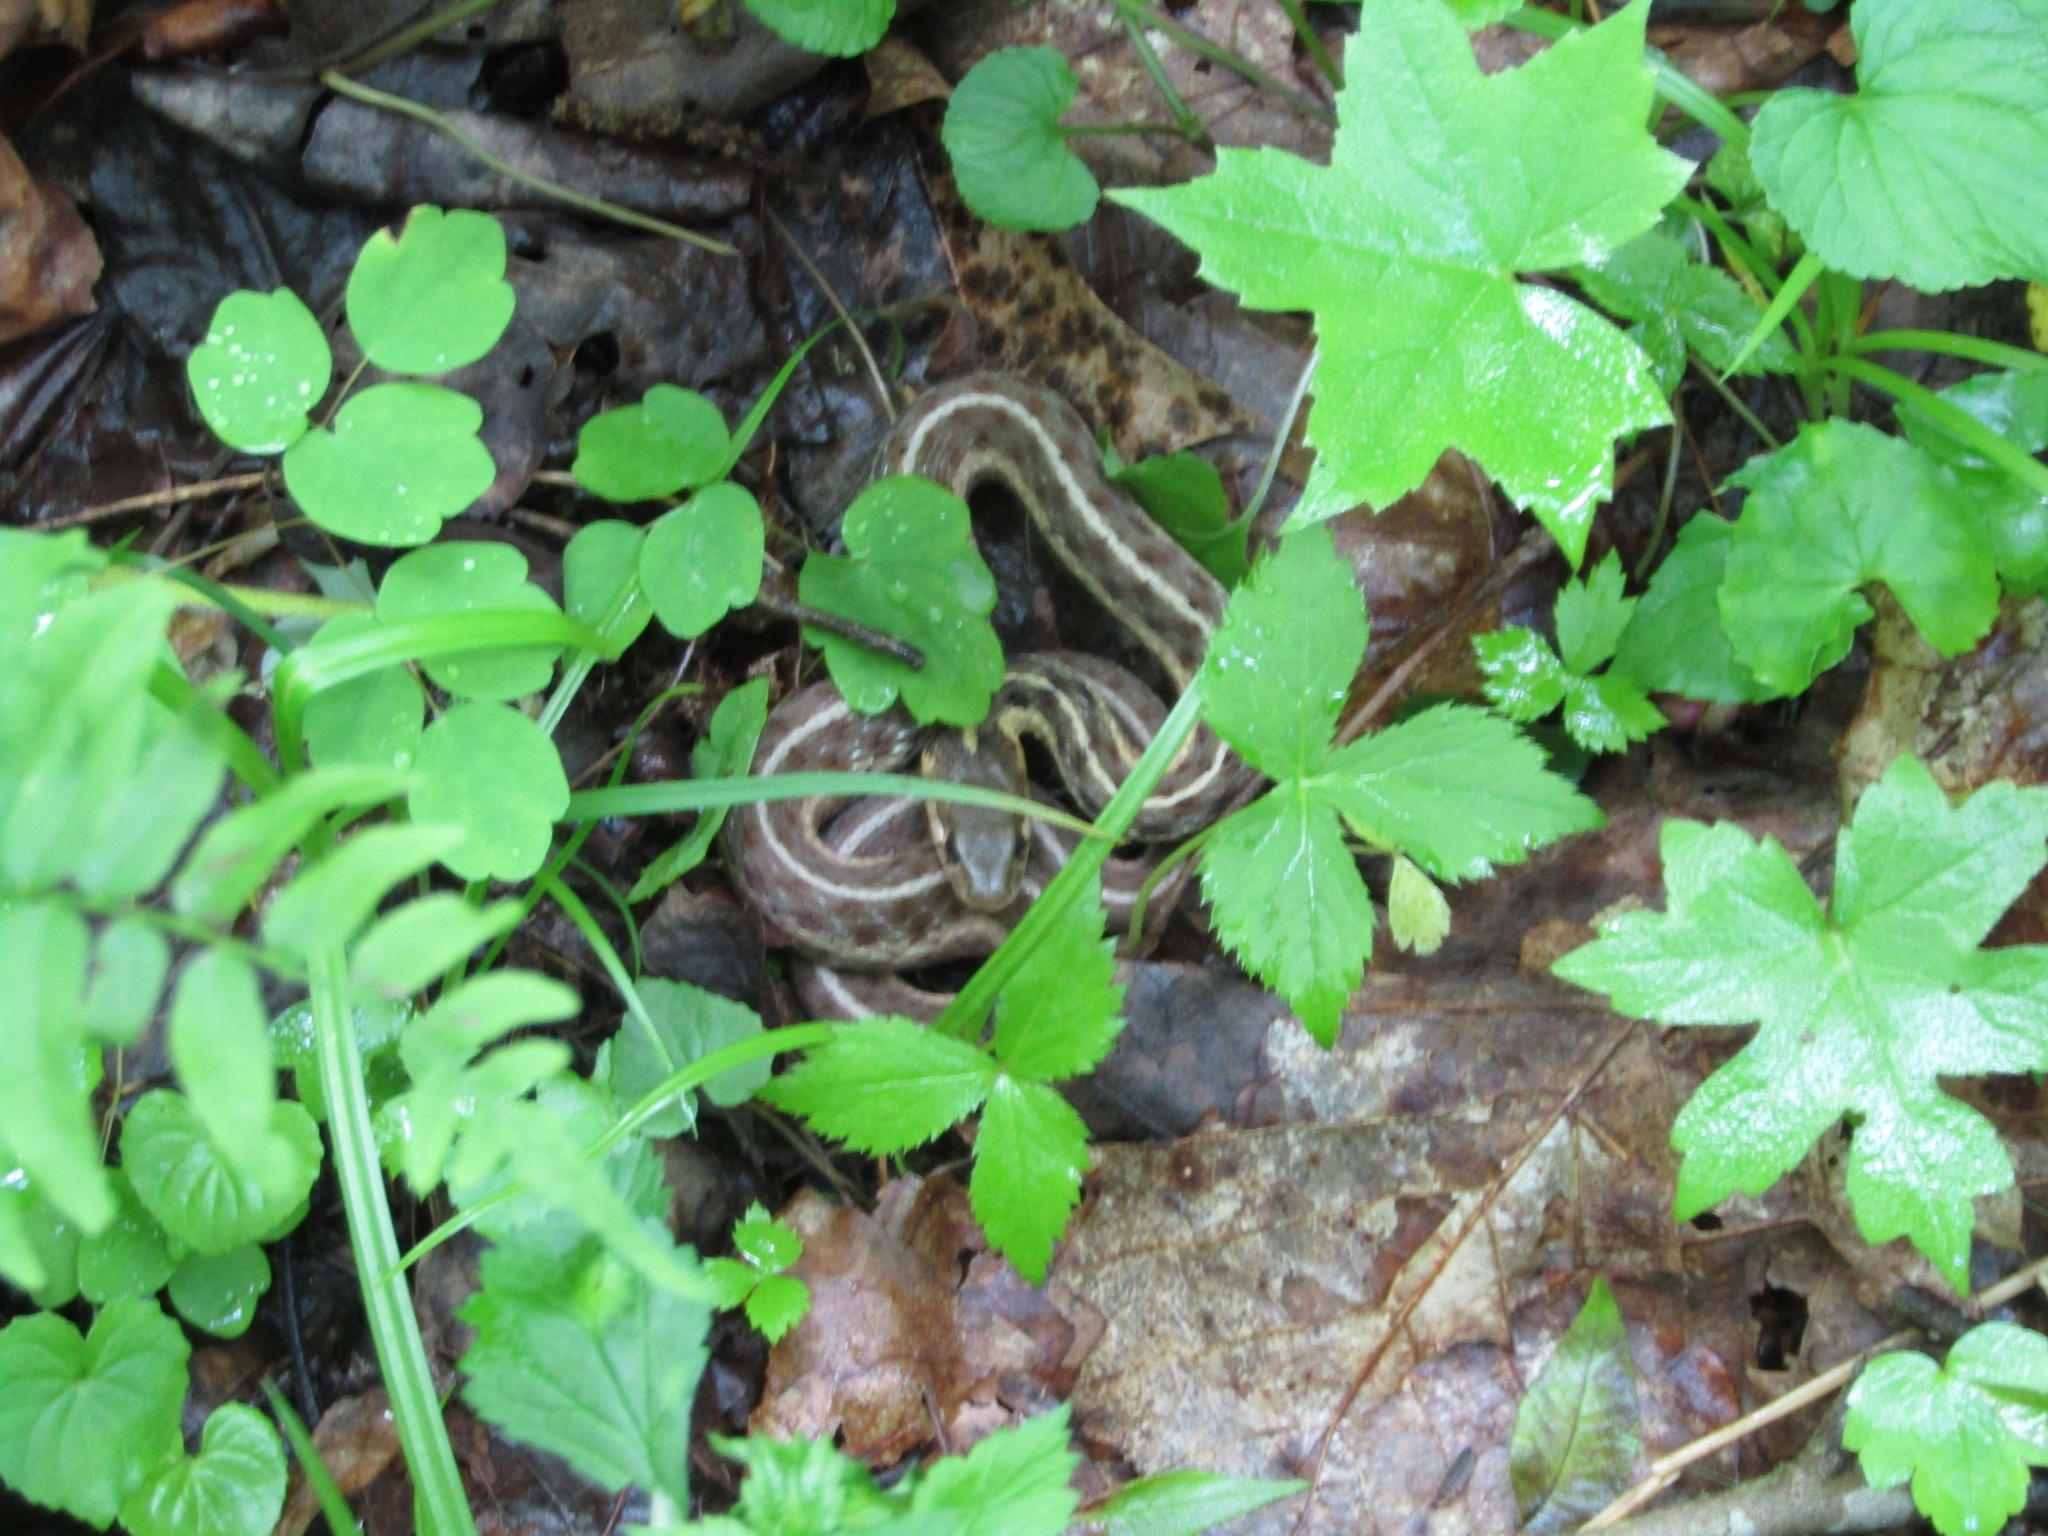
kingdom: Animalia
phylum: Chordata
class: Squamata
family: Colubridae
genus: Thamnophis
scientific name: Thamnophis sirtalis
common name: Common garter snake
